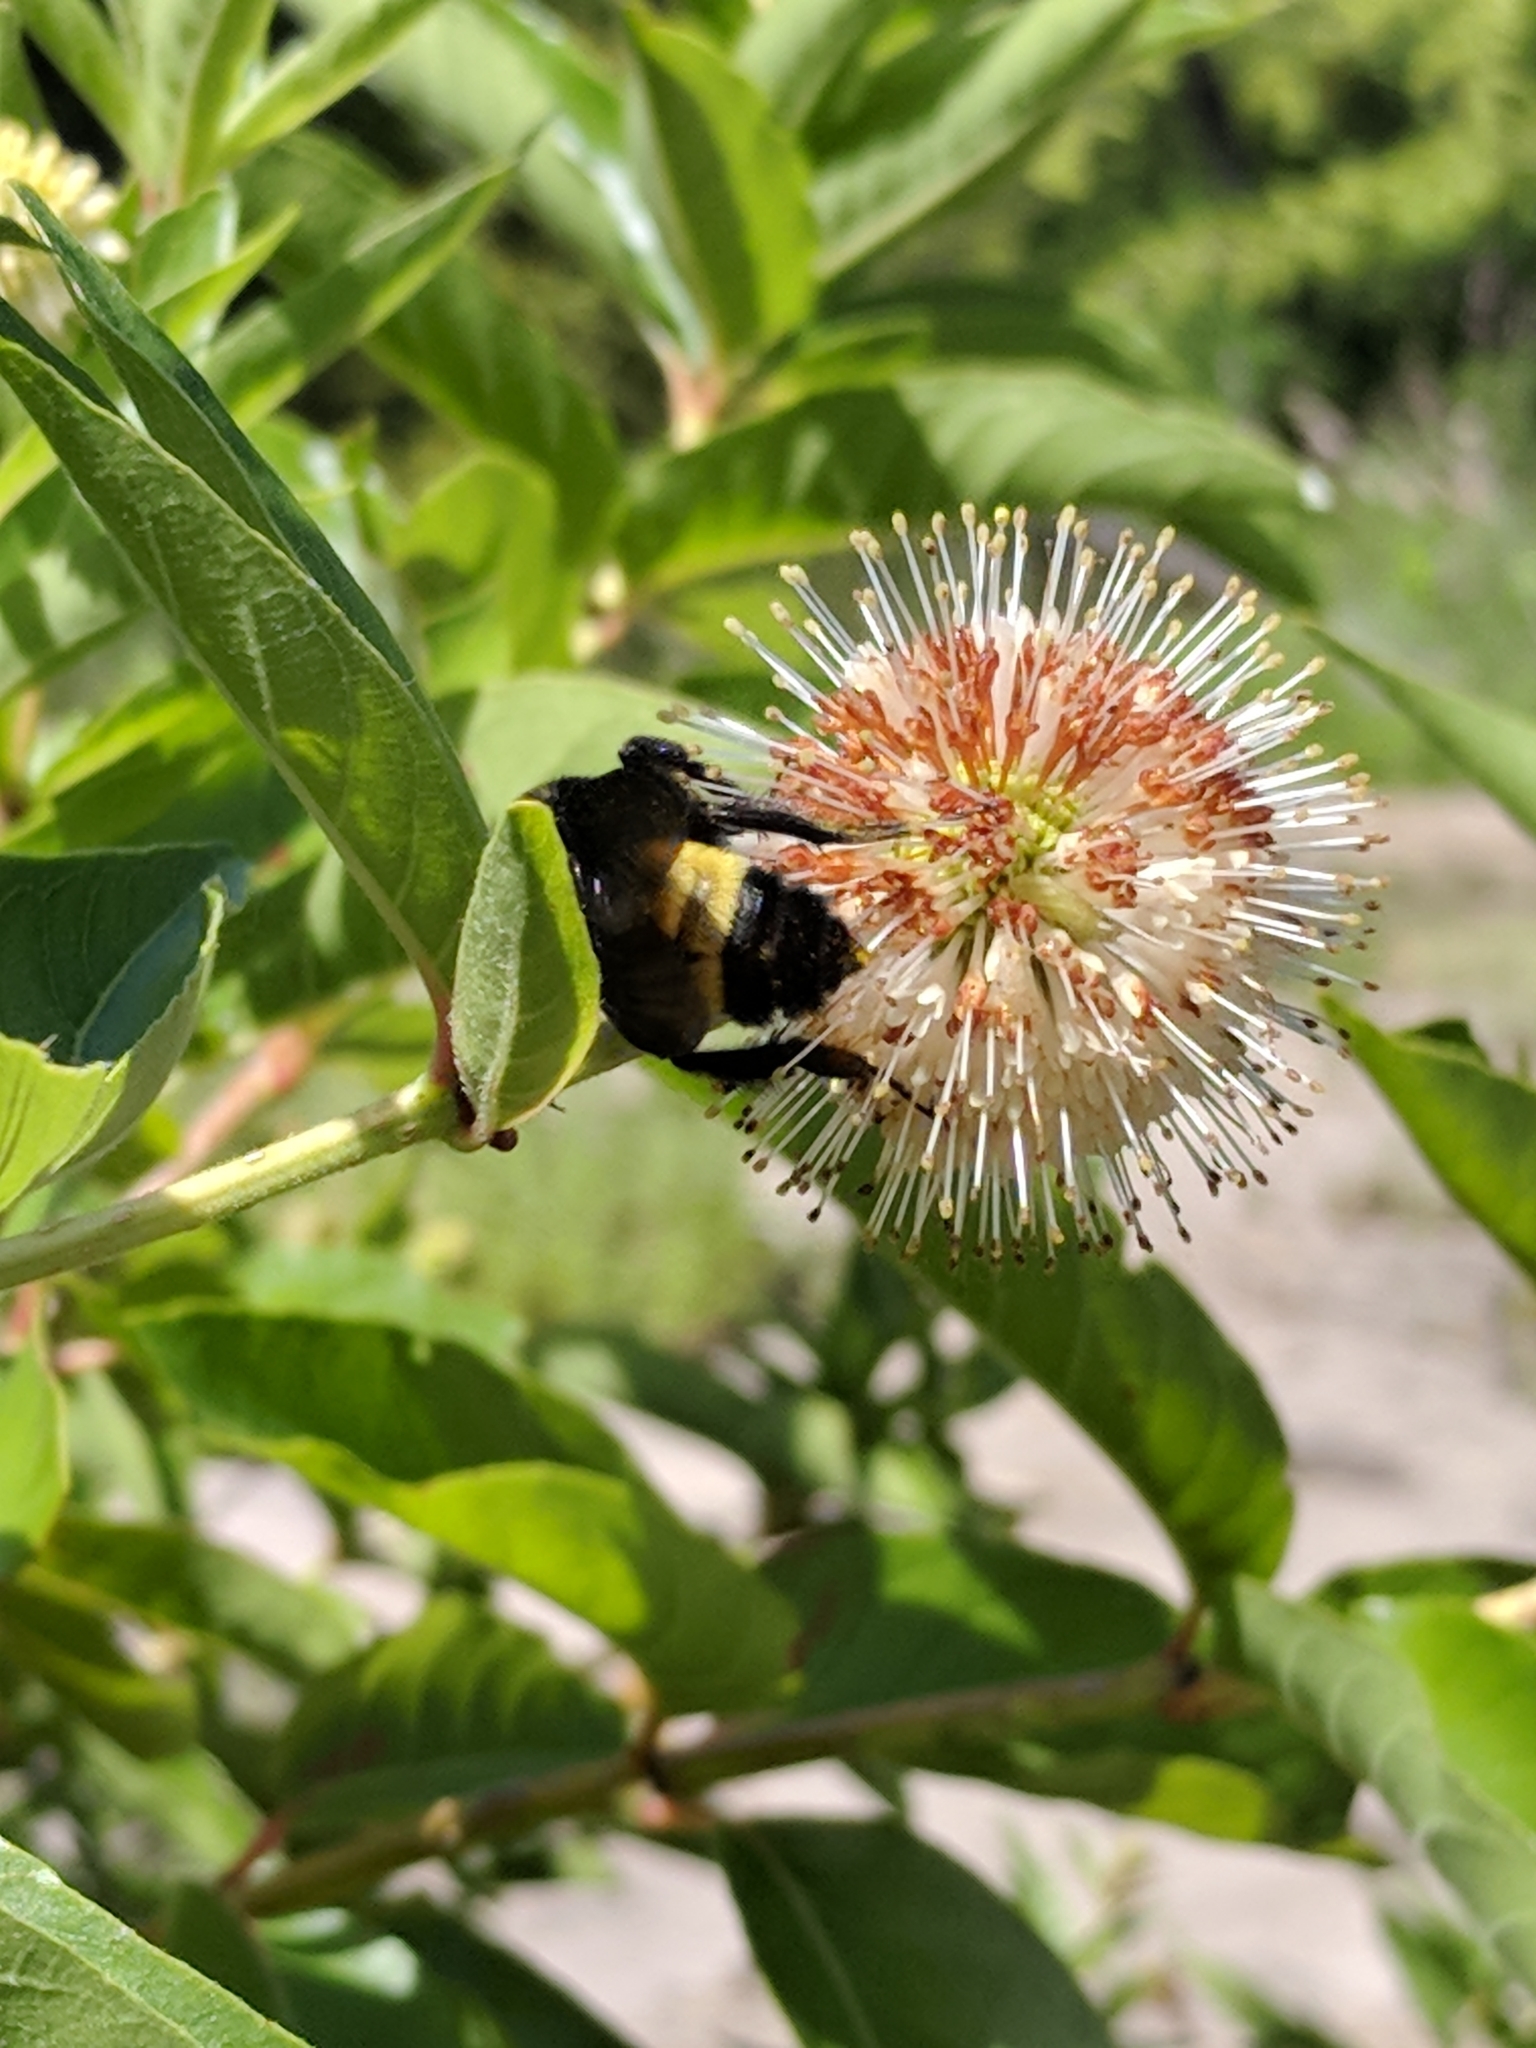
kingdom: Animalia
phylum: Arthropoda
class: Insecta
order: Hymenoptera
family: Apidae
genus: Bombus
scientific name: Bombus pensylvanicus
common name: Bumble bee
